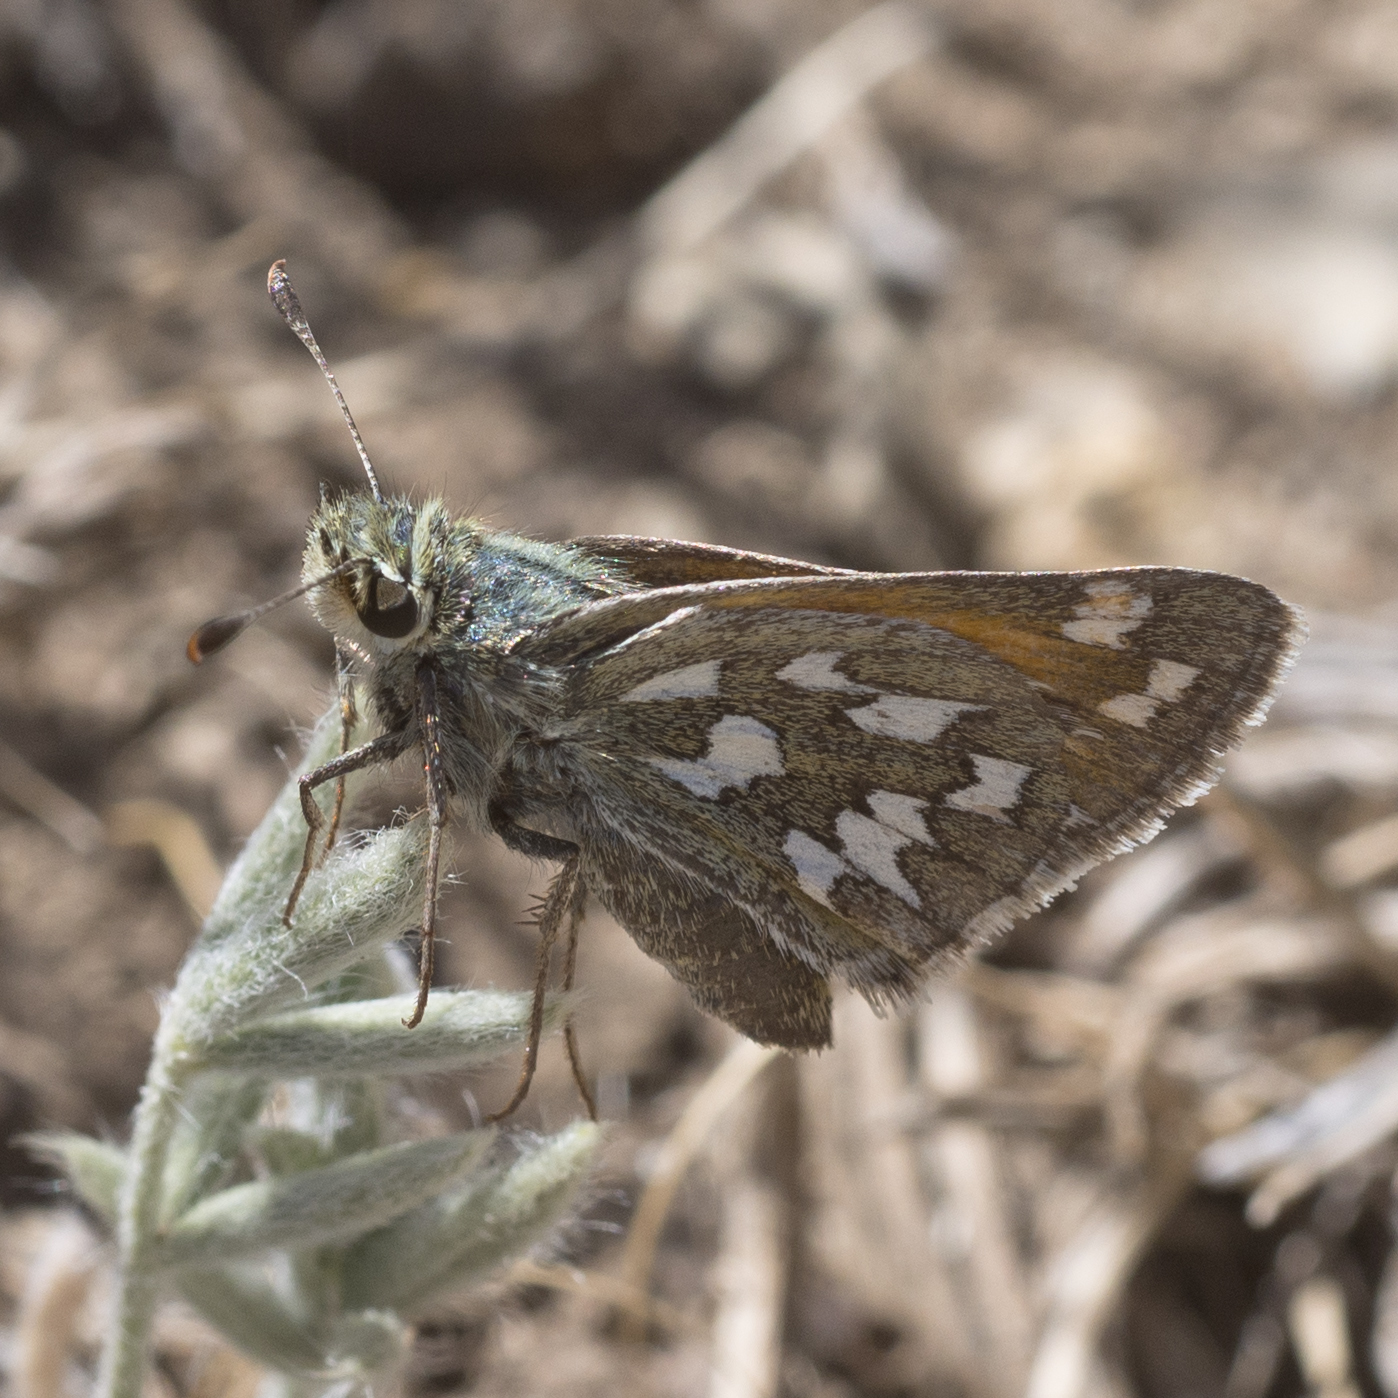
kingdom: Animalia
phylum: Arthropoda
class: Insecta
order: Lepidoptera
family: Hesperiidae
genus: Hesperia
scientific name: Hesperia nevada
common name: Nevada skipper
